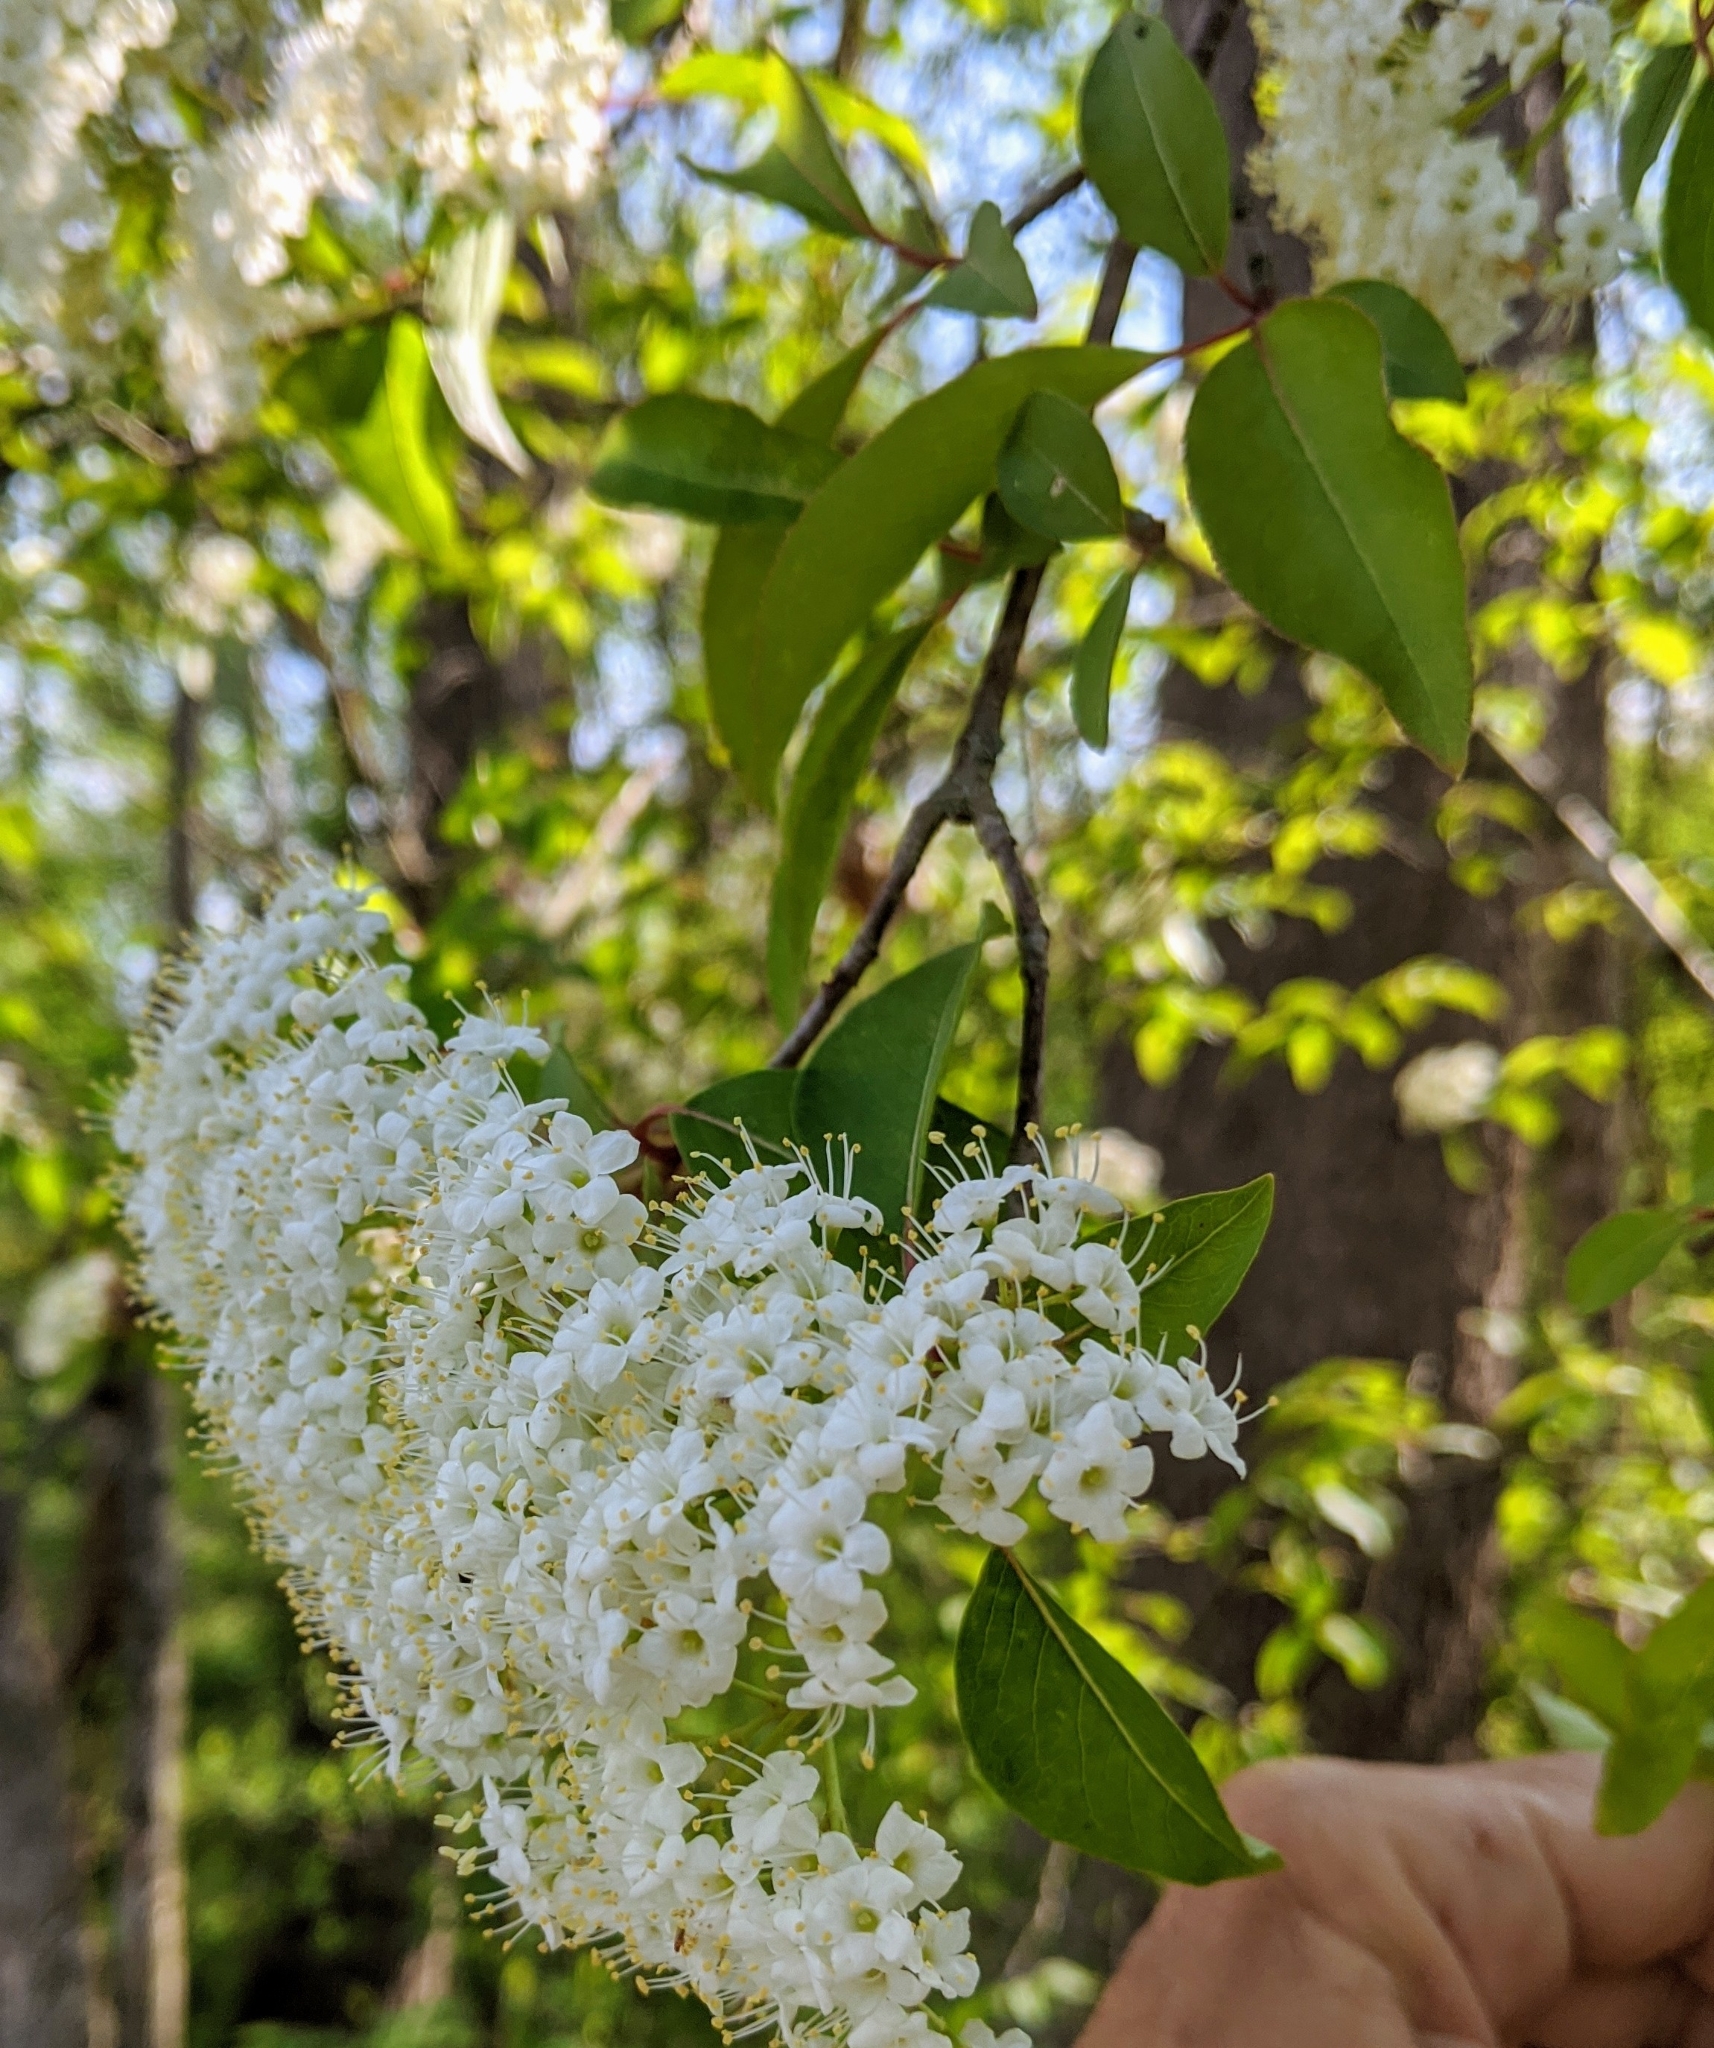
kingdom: Plantae
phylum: Tracheophyta
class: Magnoliopsida
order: Dipsacales
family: Viburnaceae
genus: Viburnum
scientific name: Viburnum prunifolium
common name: Black haw
